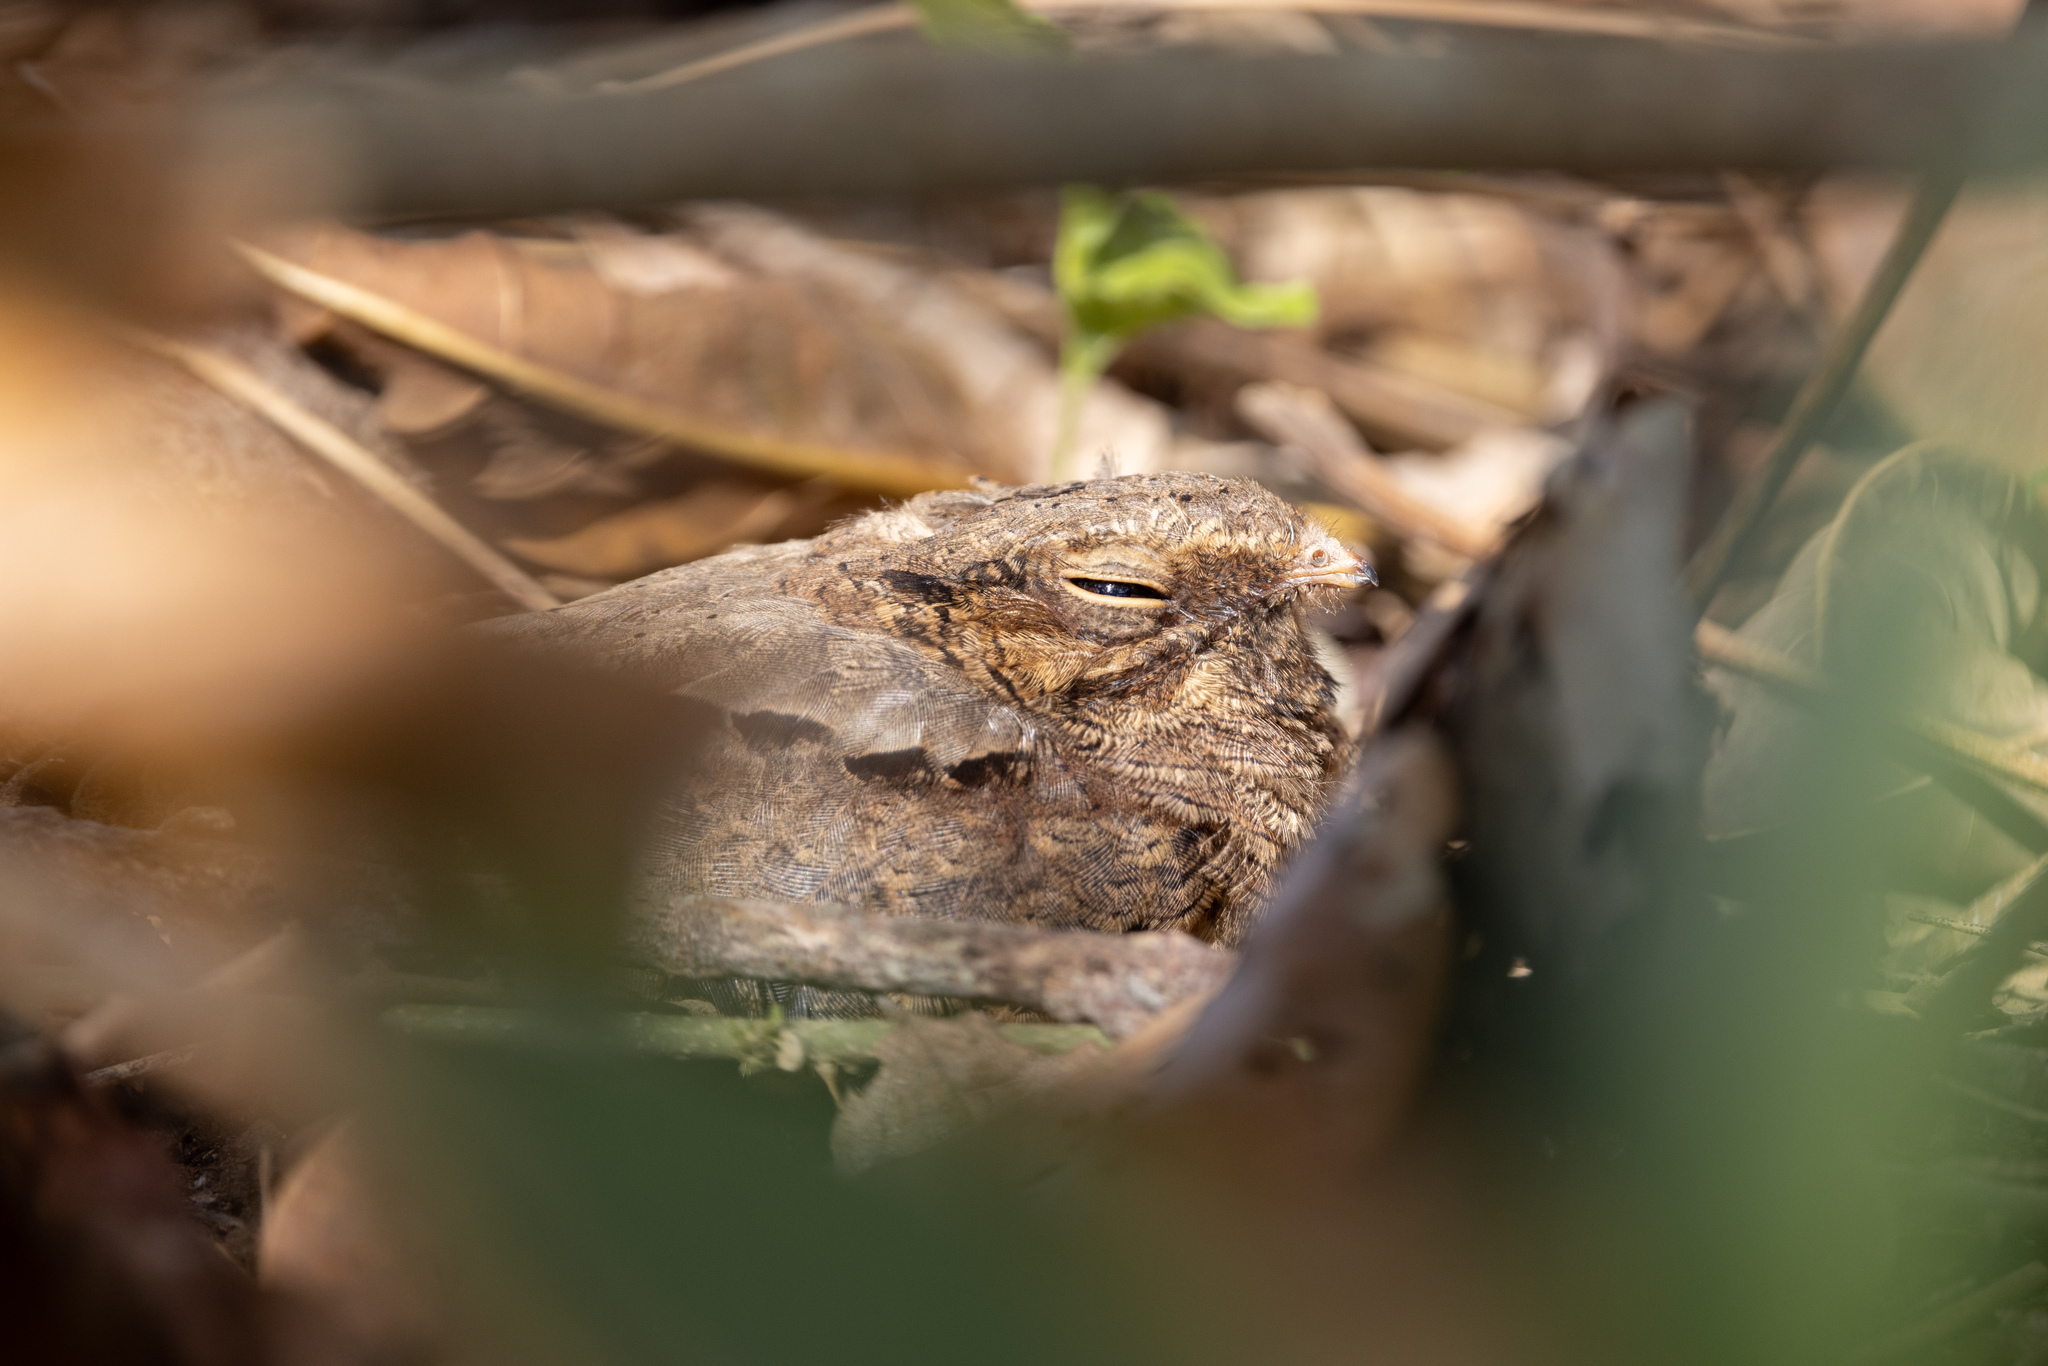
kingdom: Animalia
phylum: Chordata
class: Aves
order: Caprimulgiformes
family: Caprimulgidae
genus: Nyctidromus
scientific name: Nyctidromus albicollis
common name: Pauraque
